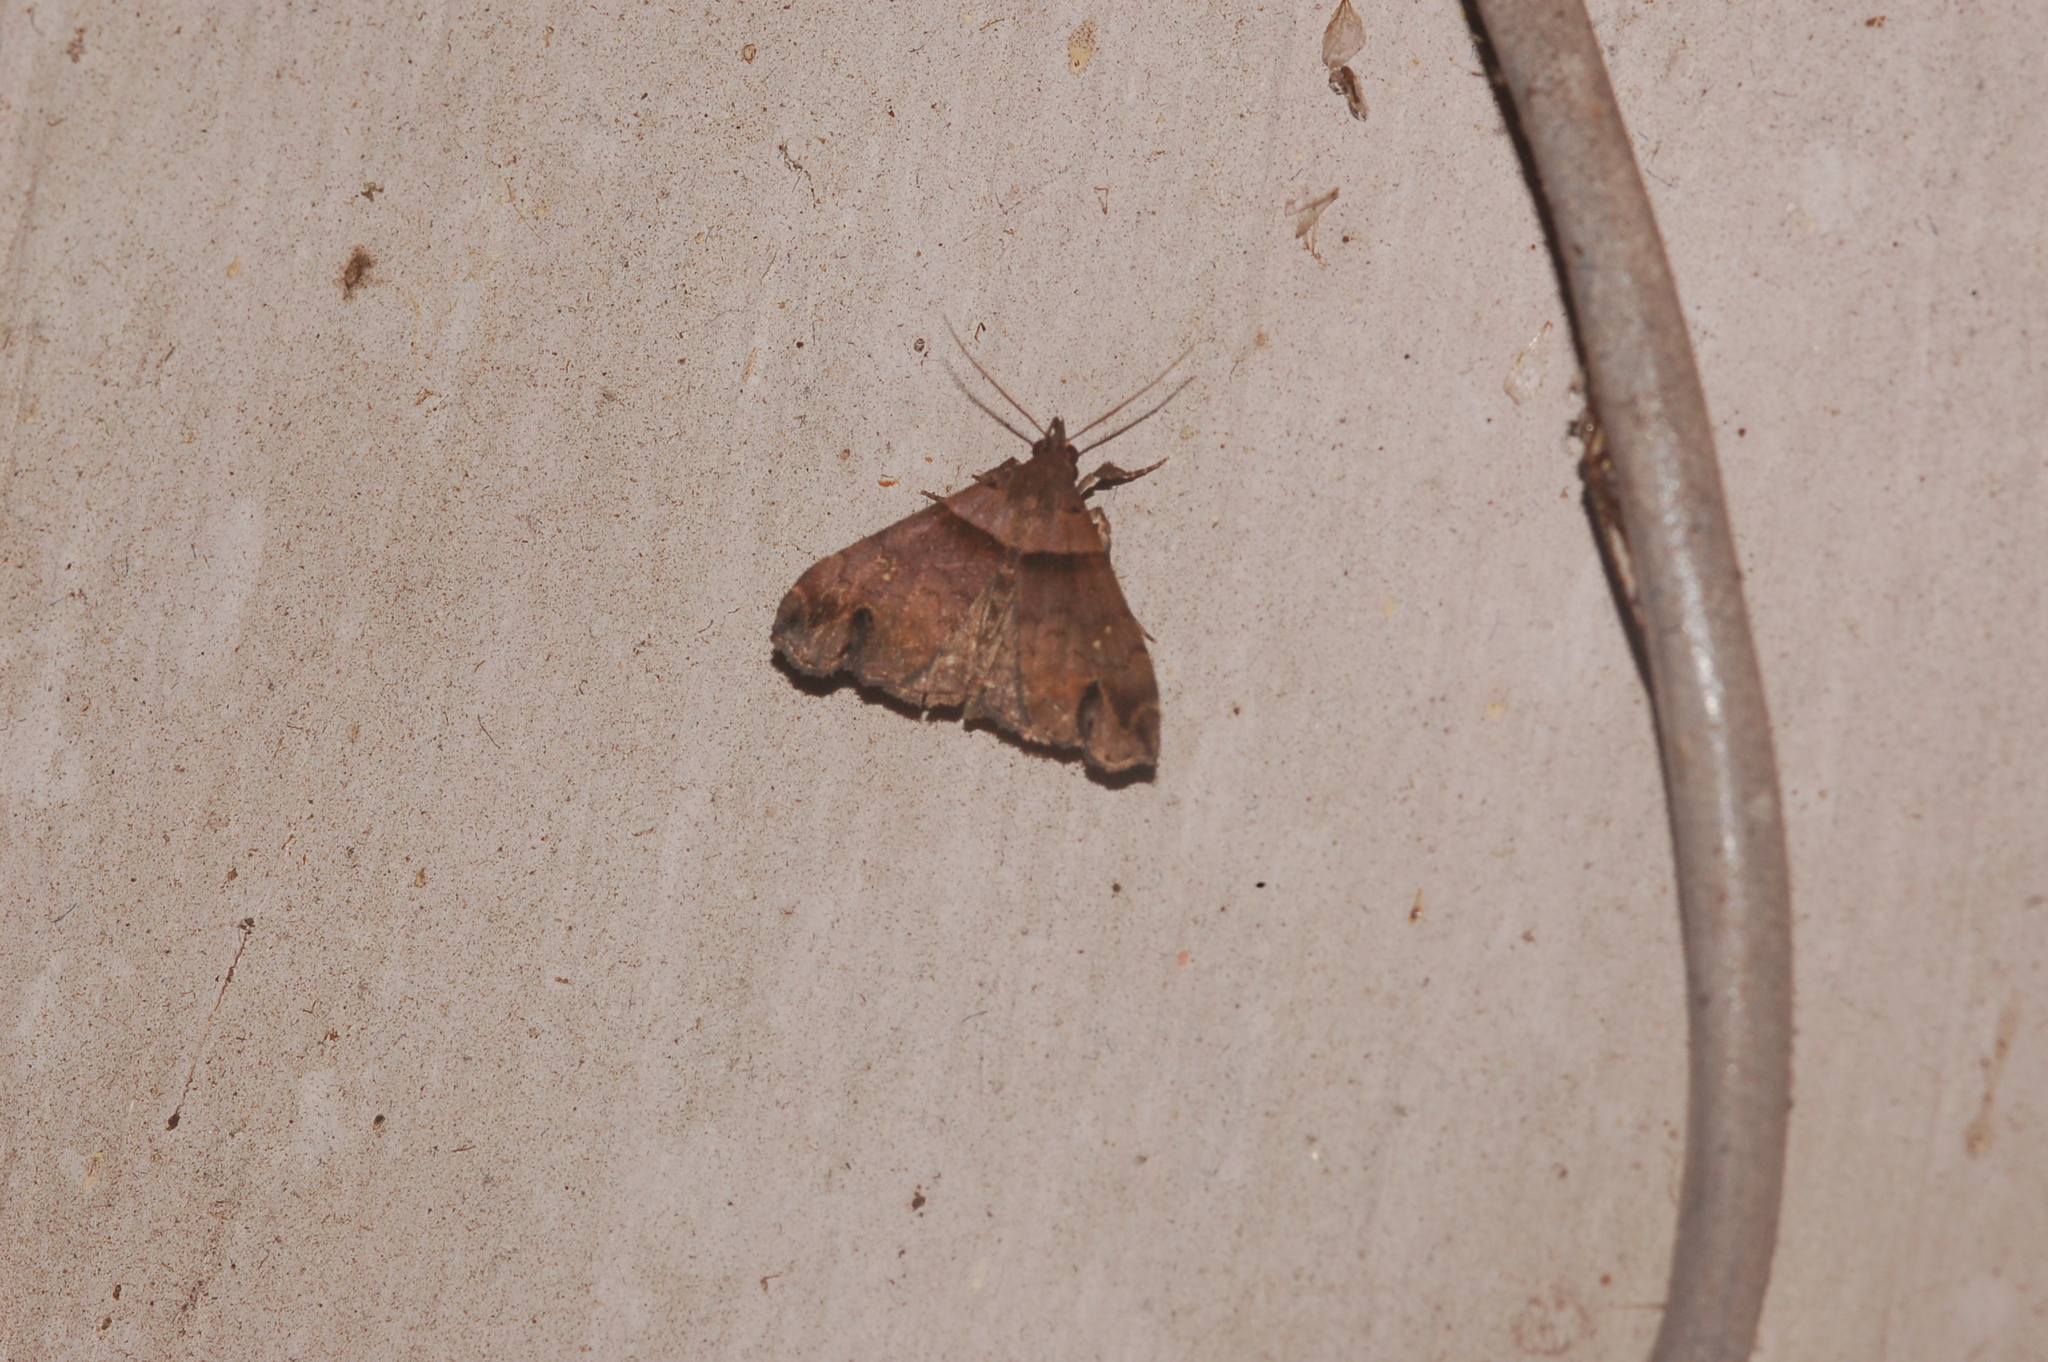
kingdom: Animalia
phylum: Arthropoda
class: Insecta
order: Lepidoptera
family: Erebidae
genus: Lascoria
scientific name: Lascoria ambigualis
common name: Ambiguous moth
